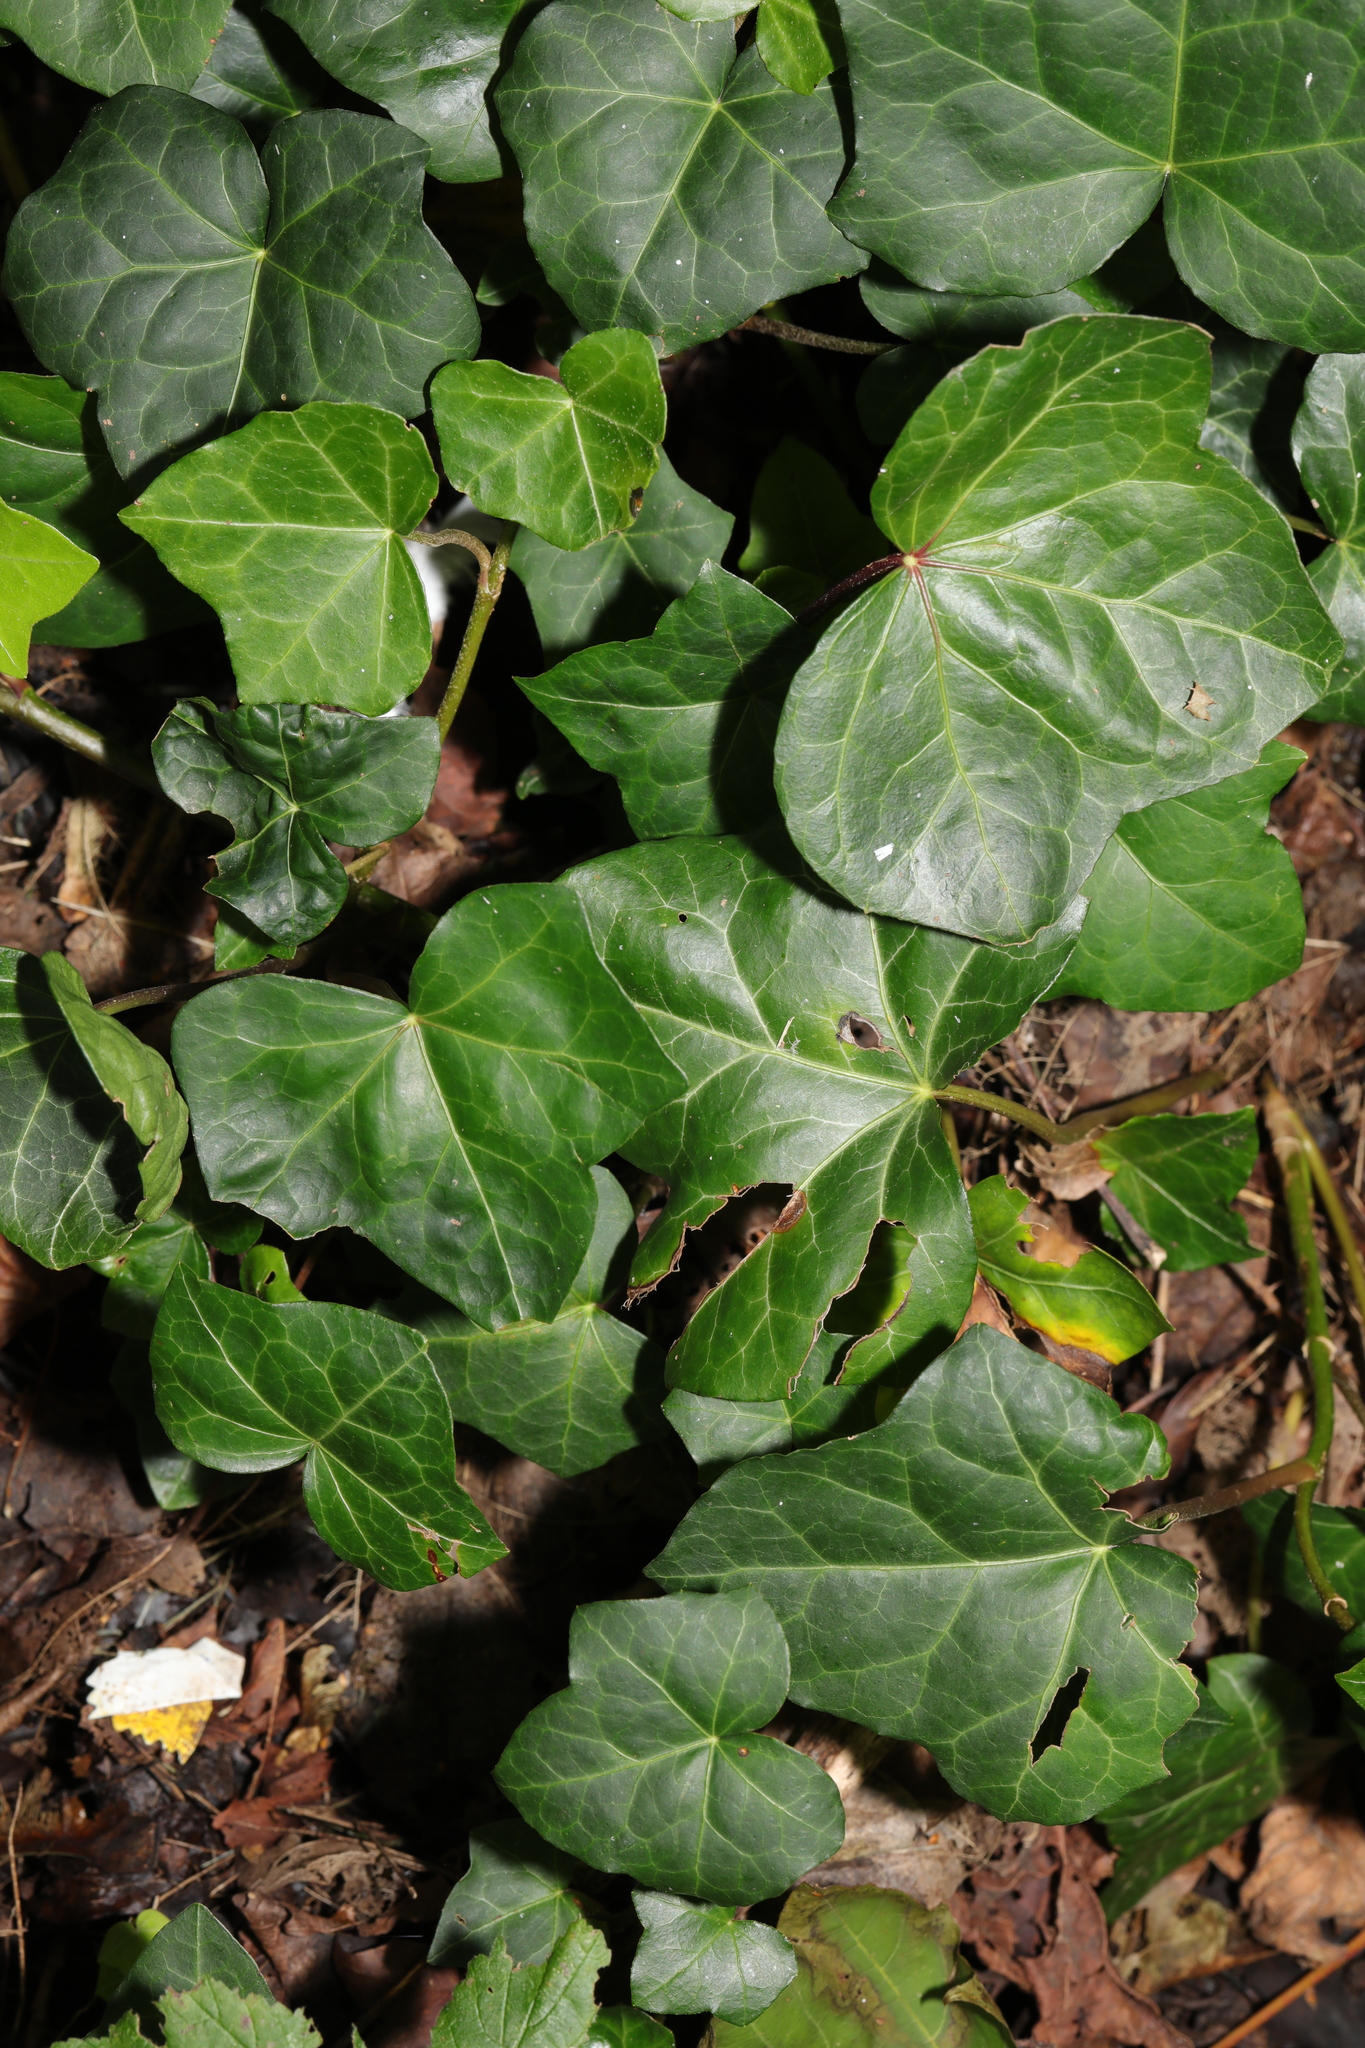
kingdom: Plantae
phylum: Tracheophyta
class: Magnoliopsida
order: Apiales
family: Araliaceae
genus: Hedera
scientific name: Hedera helix
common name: Ivy
